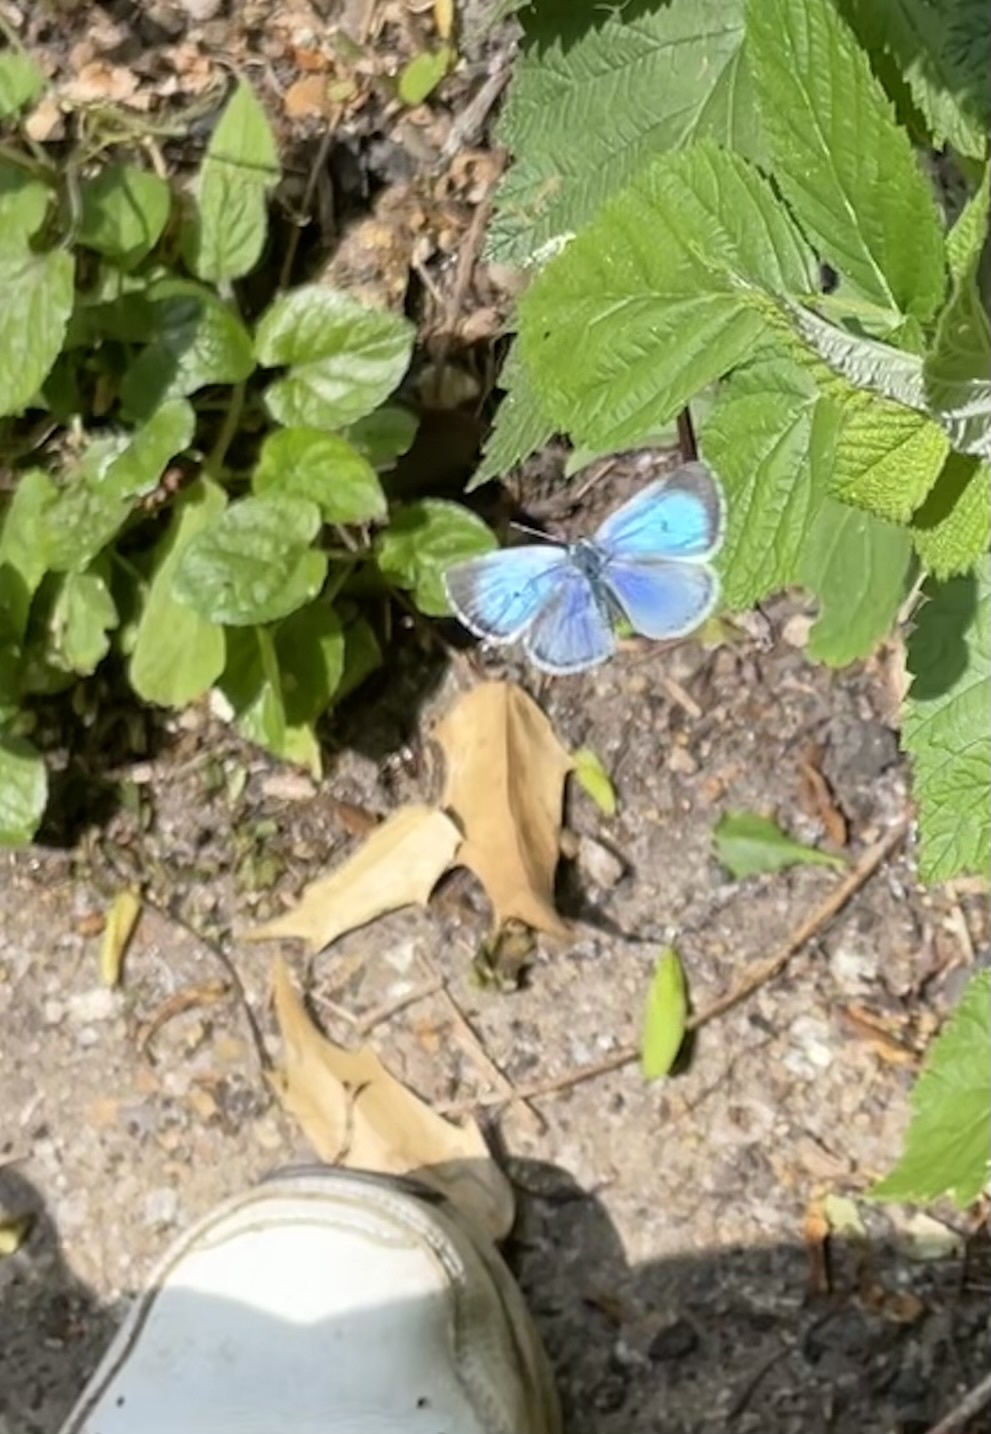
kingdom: Animalia
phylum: Arthropoda
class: Insecta
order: Lepidoptera
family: Lycaenidae
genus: Celastrina
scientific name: Celastrina argiolus
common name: Holly blue
